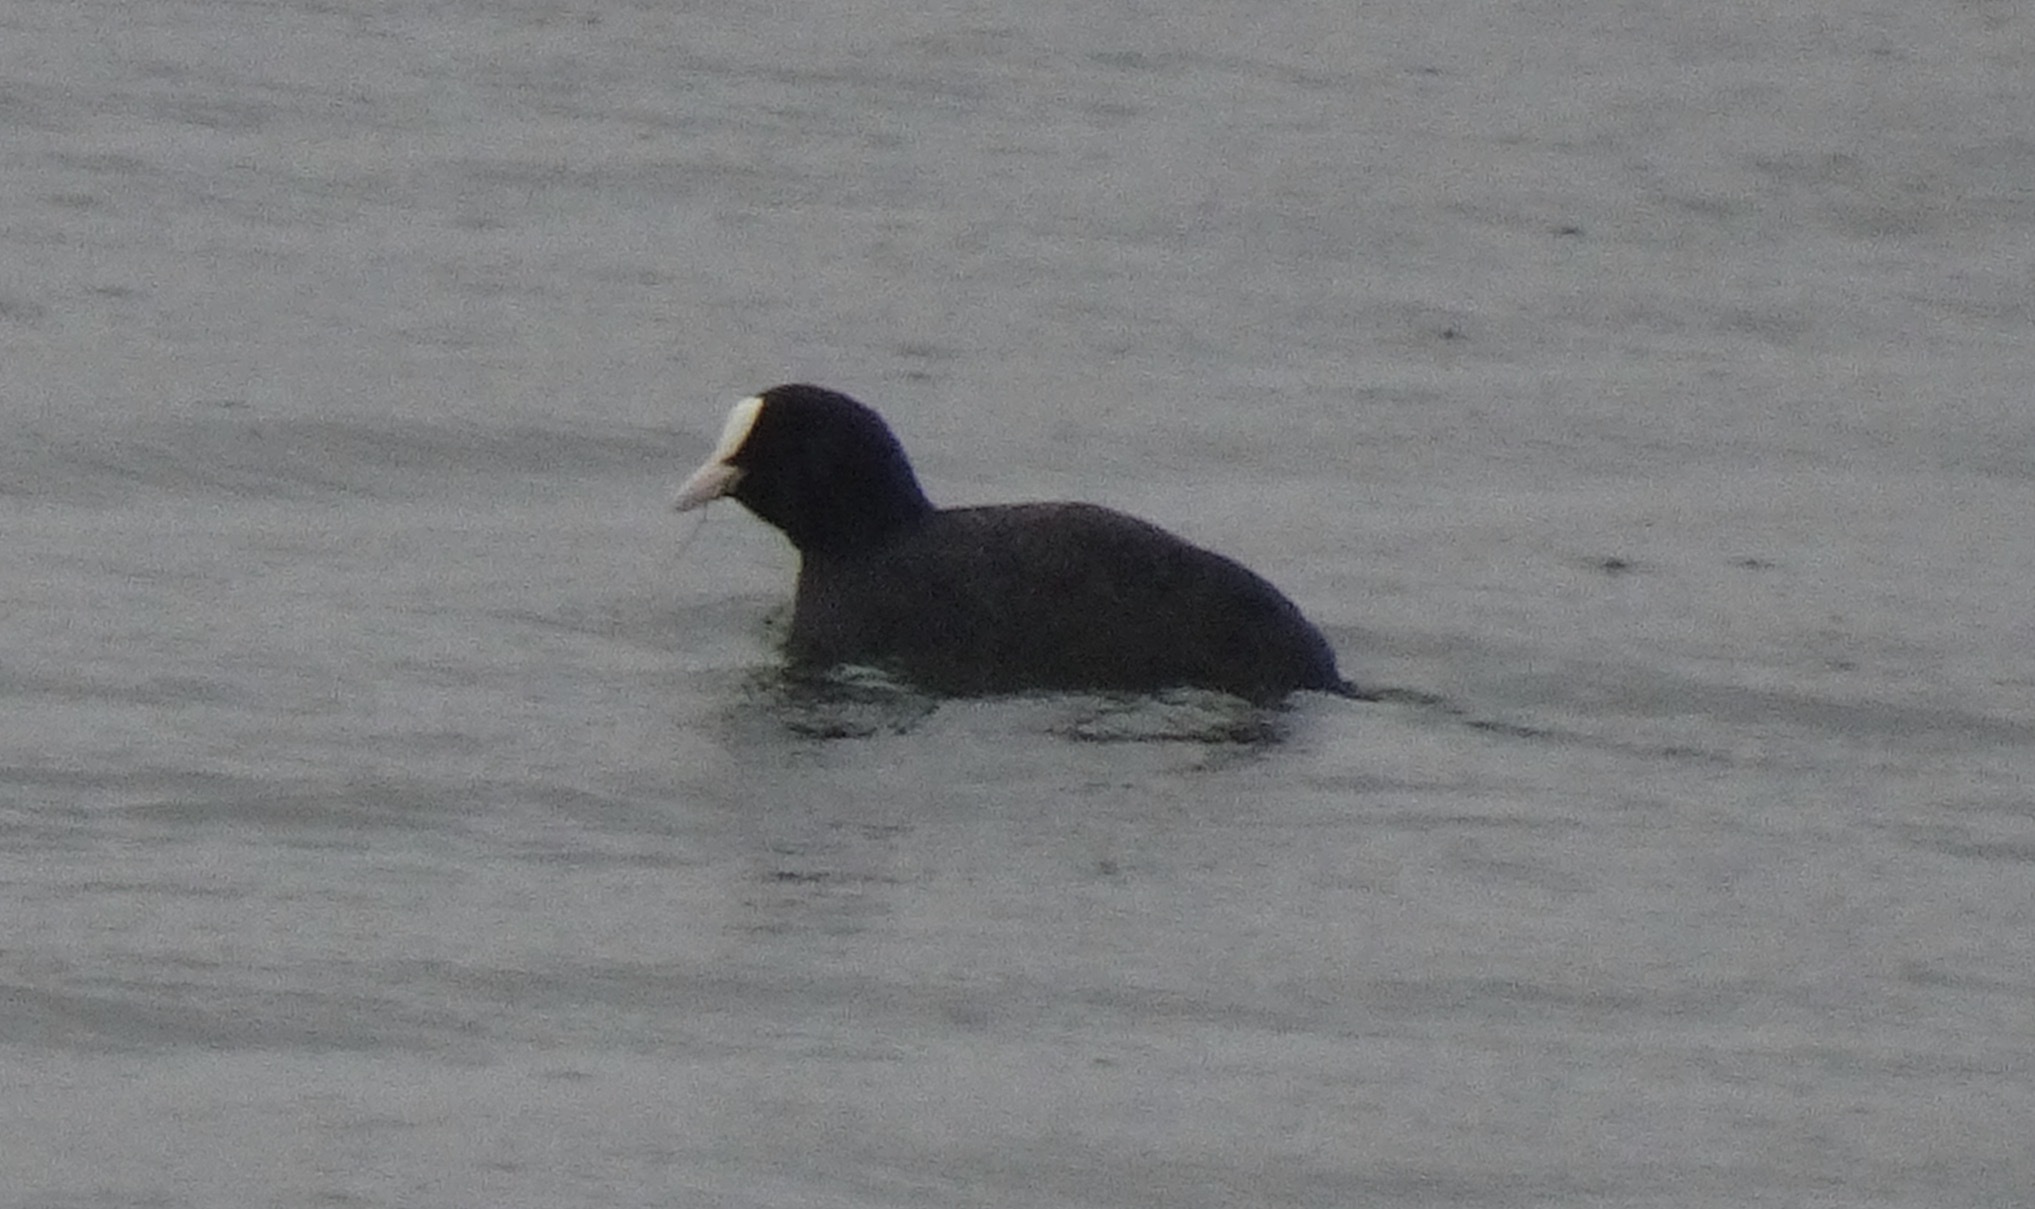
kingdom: Animalia
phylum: Chordata
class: Aves
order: Gruiformes
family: Rallidae
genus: Fulica
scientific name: Fulica atra
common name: Eurasian coot
